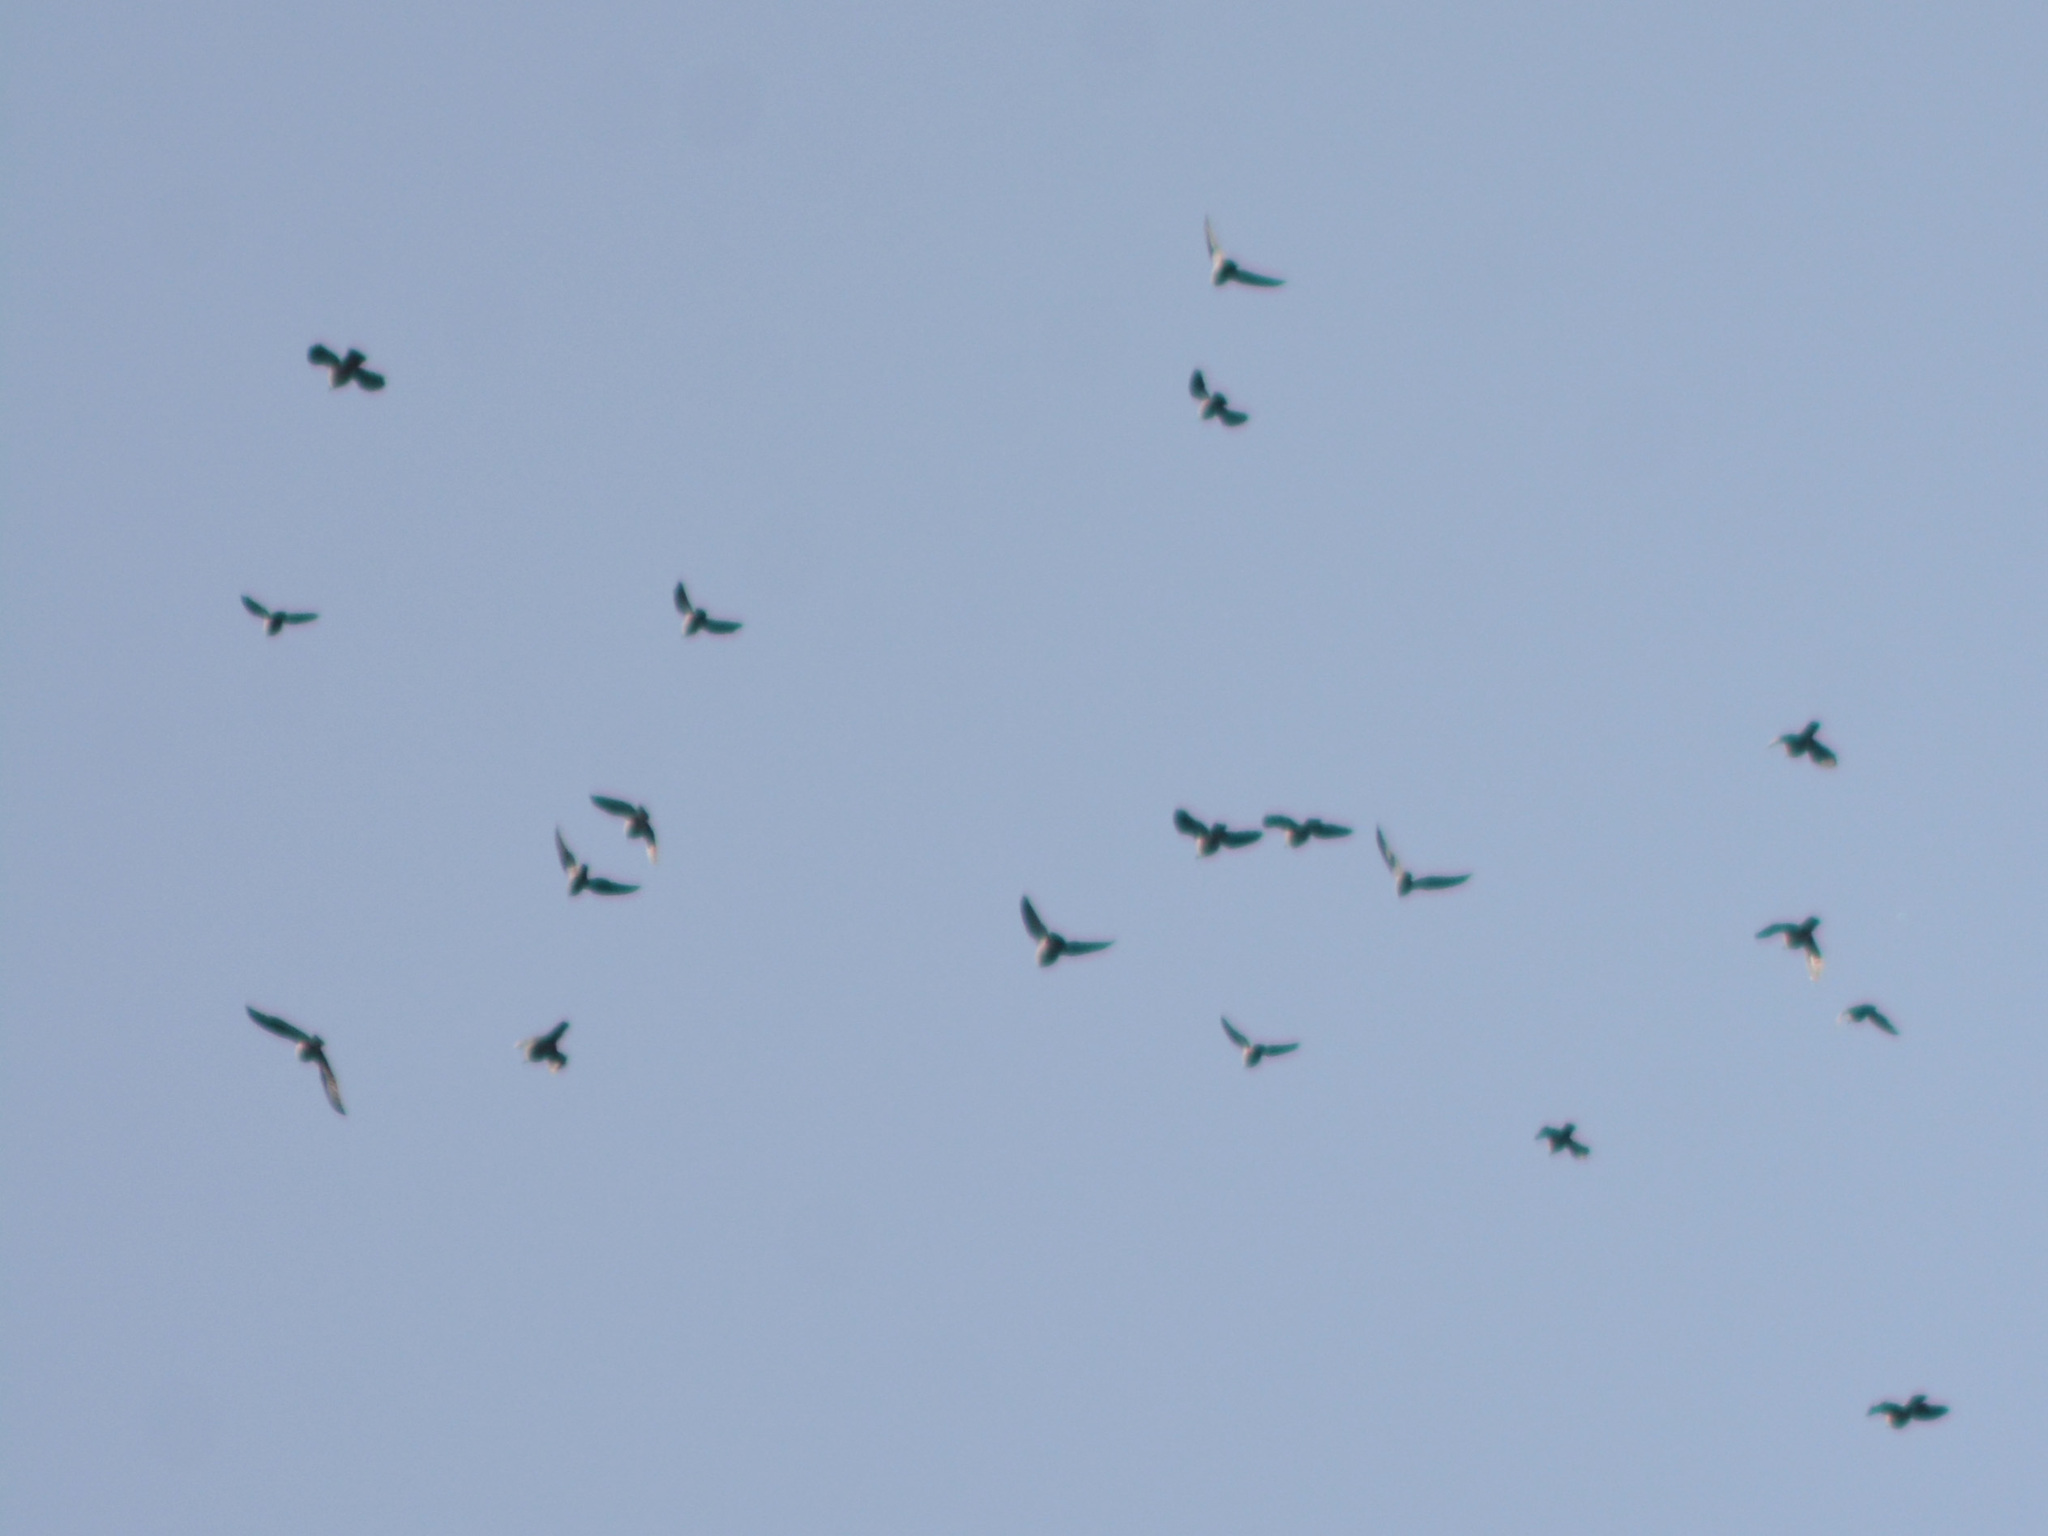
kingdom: Animalia
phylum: Chordata
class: Aves
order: Columbiformes
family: Columbidae
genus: Columba
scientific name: Columba palumbus
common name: Common wood pigeon
